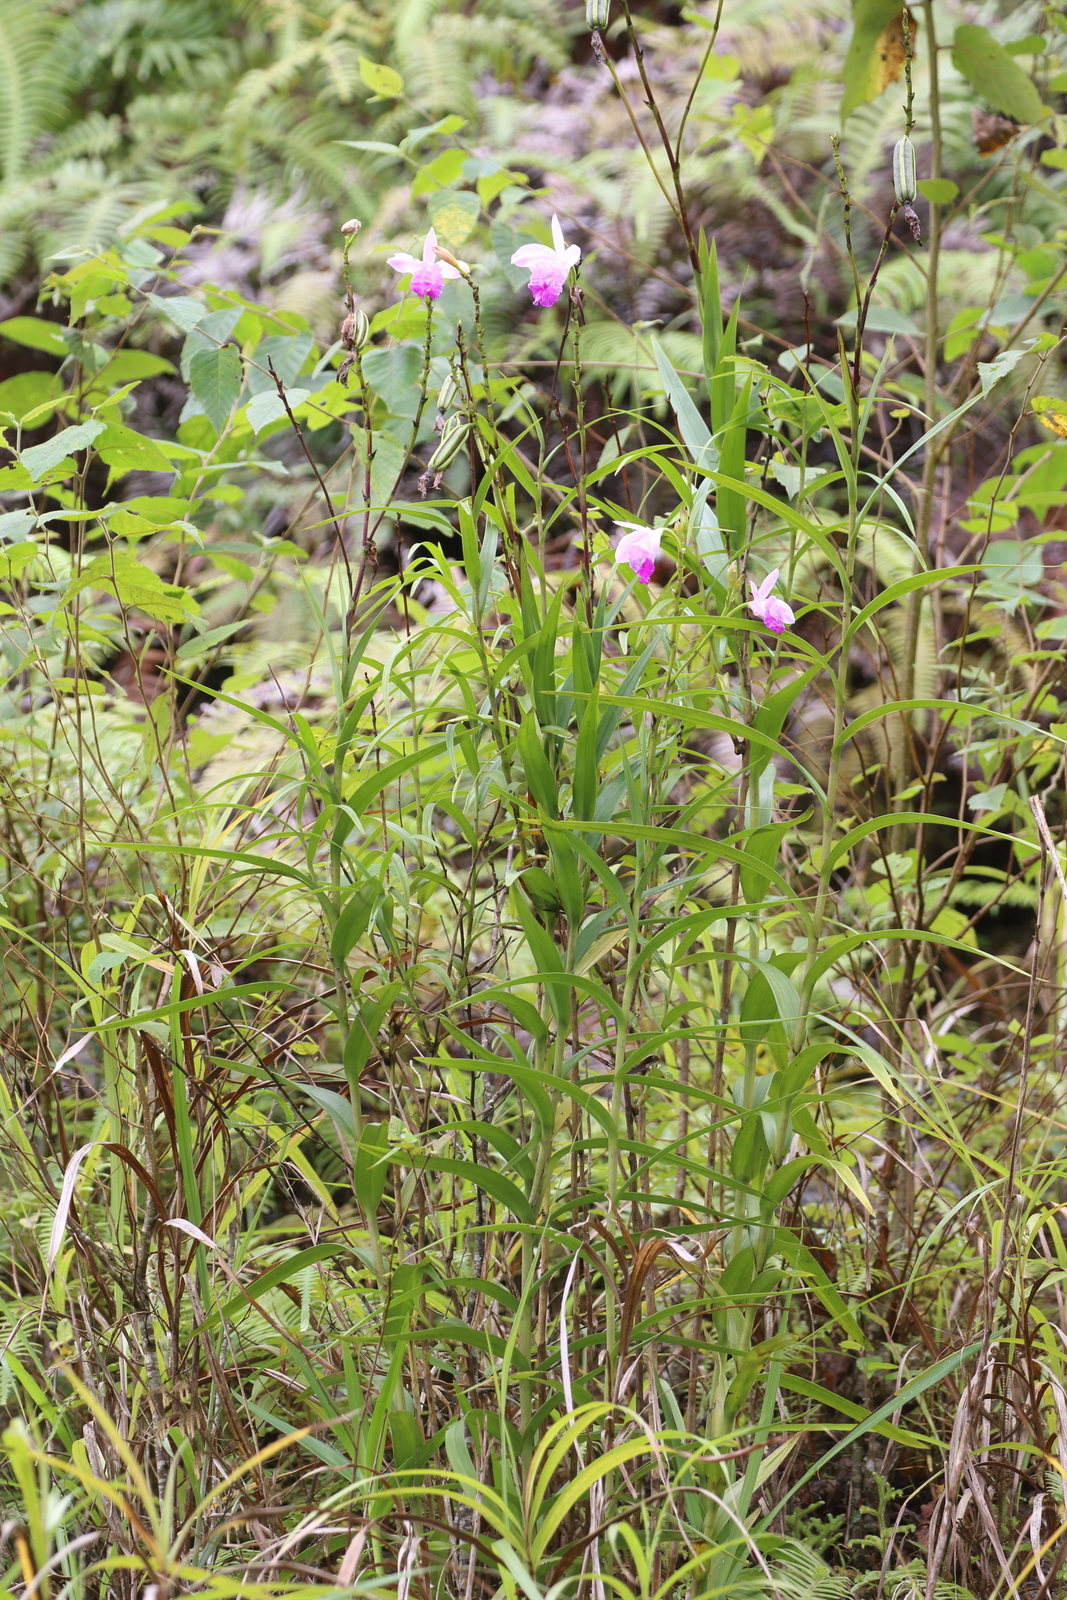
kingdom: Plantae
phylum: Tracheophyta
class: Liliopsida
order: Asparagales
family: Orchidaceae
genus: Arundina
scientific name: Arundina graminifolia
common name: Bamboo orchid
